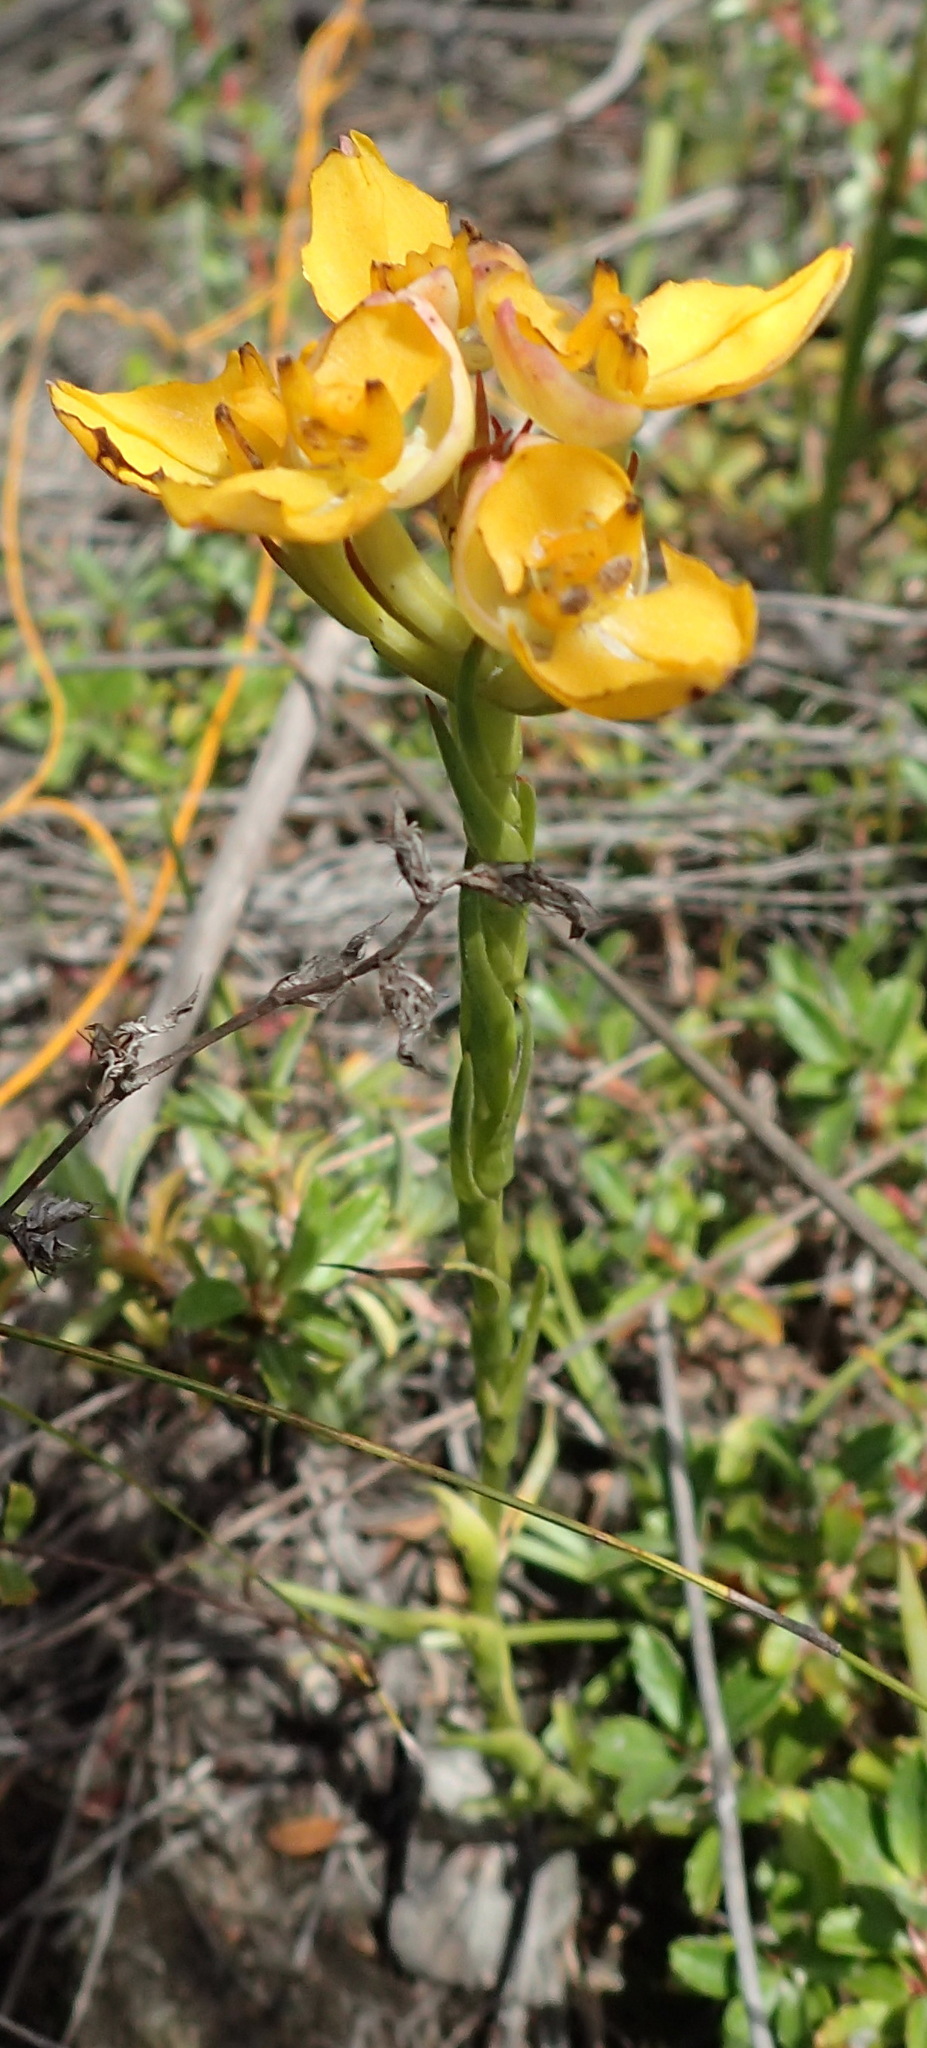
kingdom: Plantae
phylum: Tracheophyta
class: Liliopsida
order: Asparagales
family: Orchidaceae
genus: Ceratandra
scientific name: Ceratandra grandiflora
